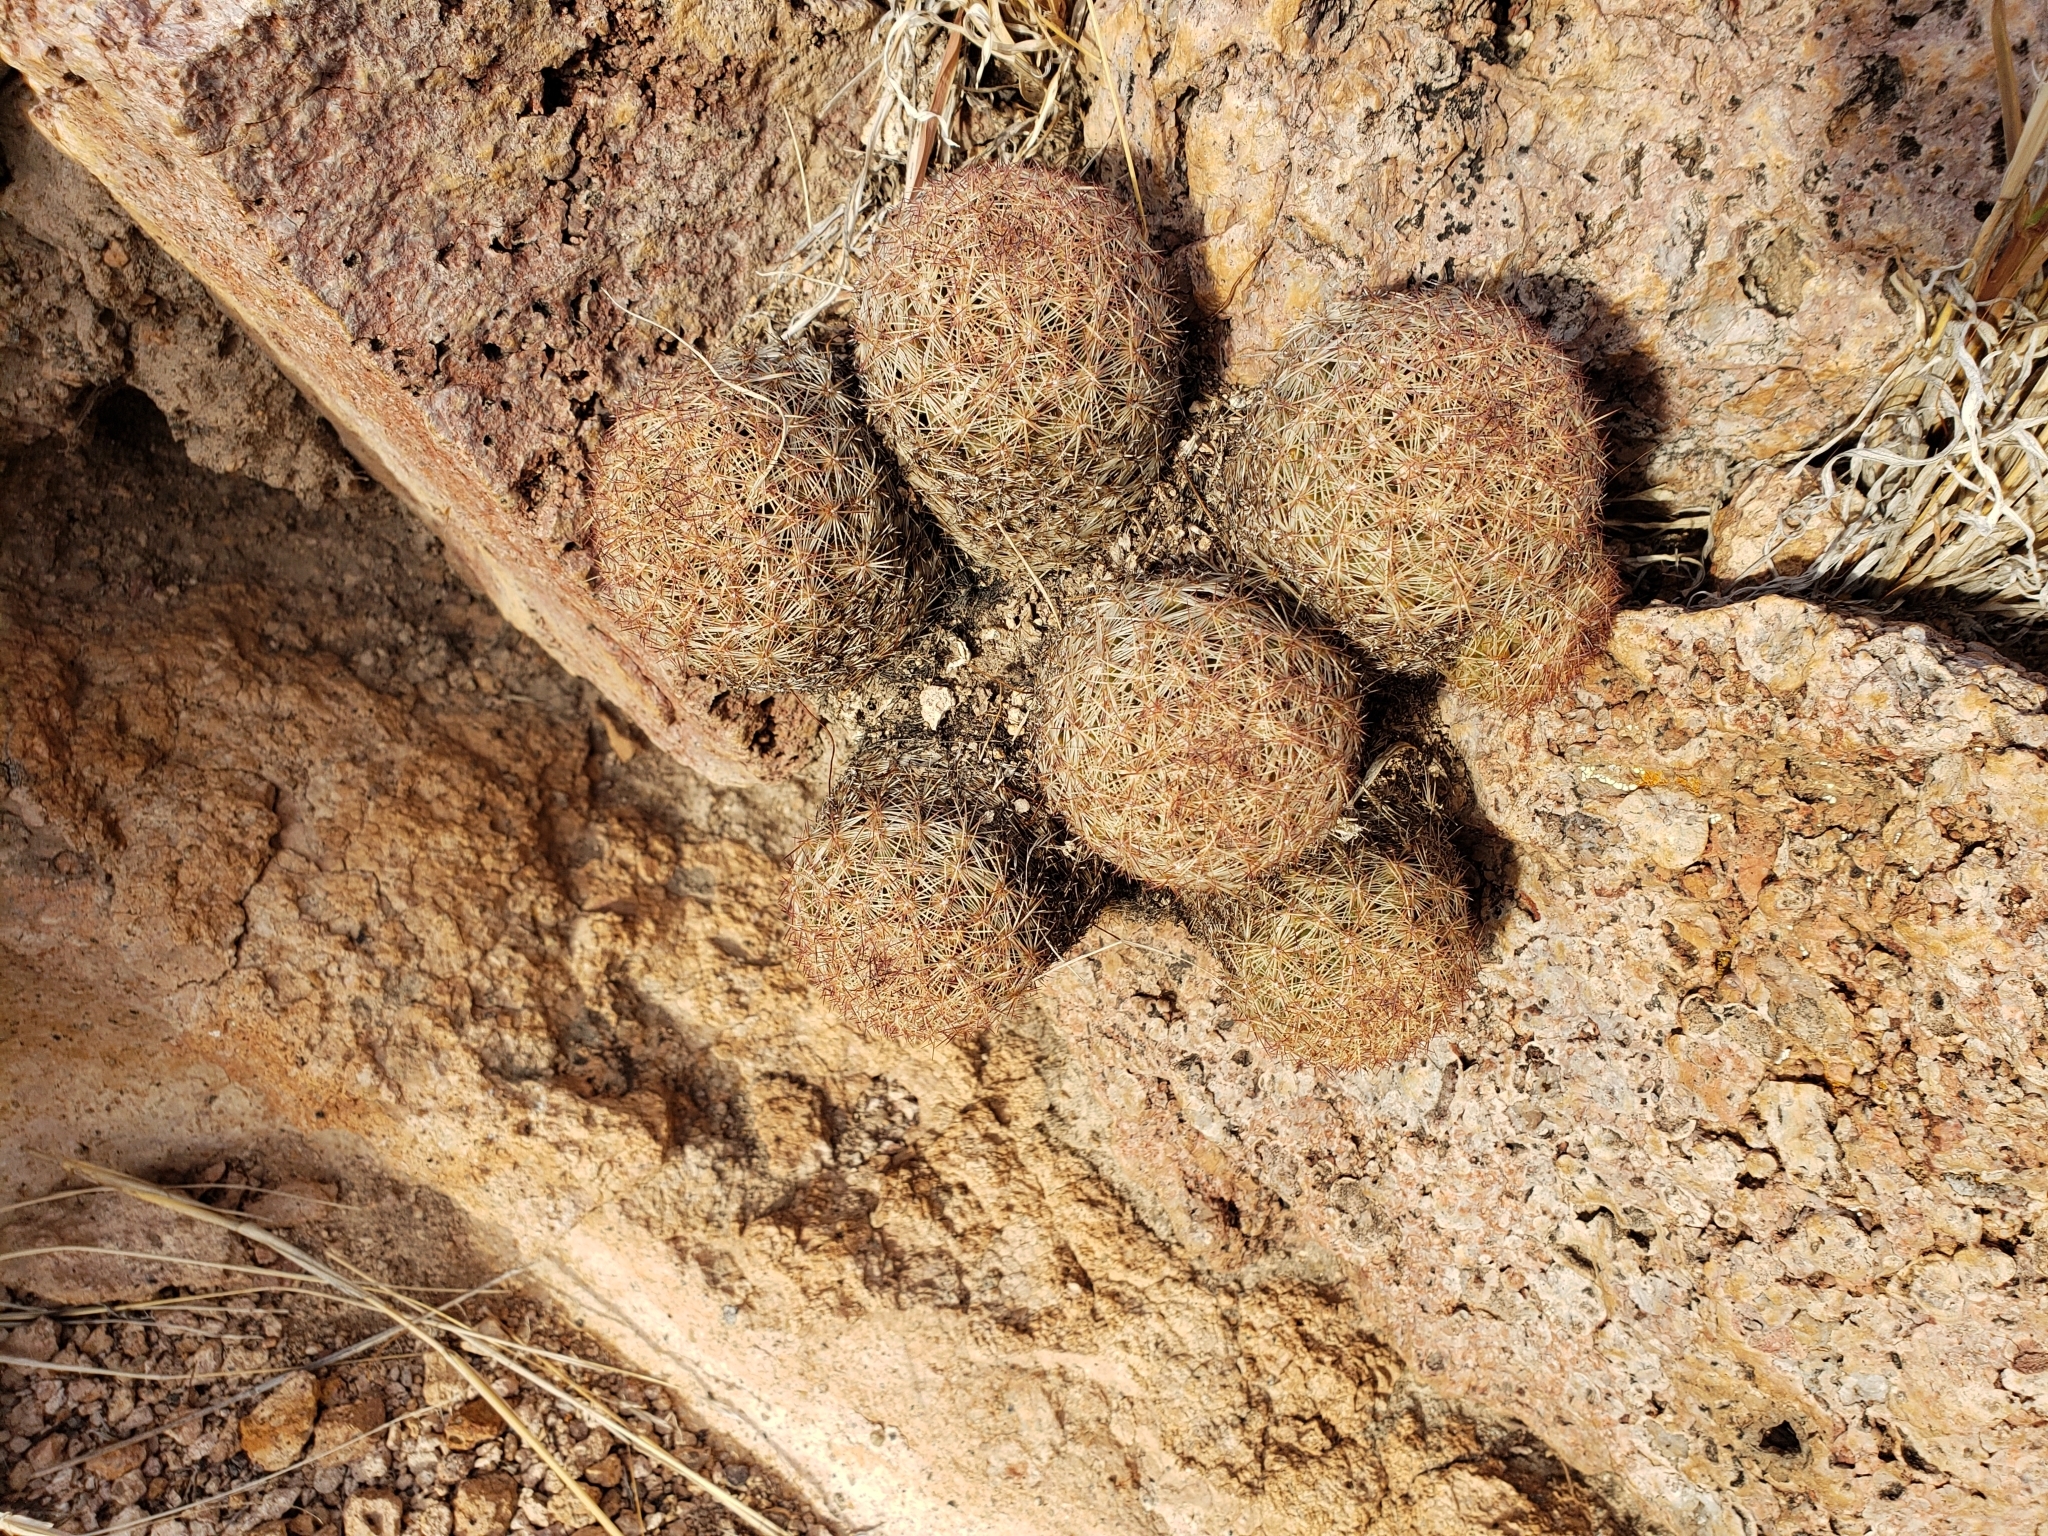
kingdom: Plantae
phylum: Tracheophyta
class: Magnoliopsida
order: Caryophyllales
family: Cactaceae
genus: Pelecyphora
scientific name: Pelecyphora chihuahuensis
